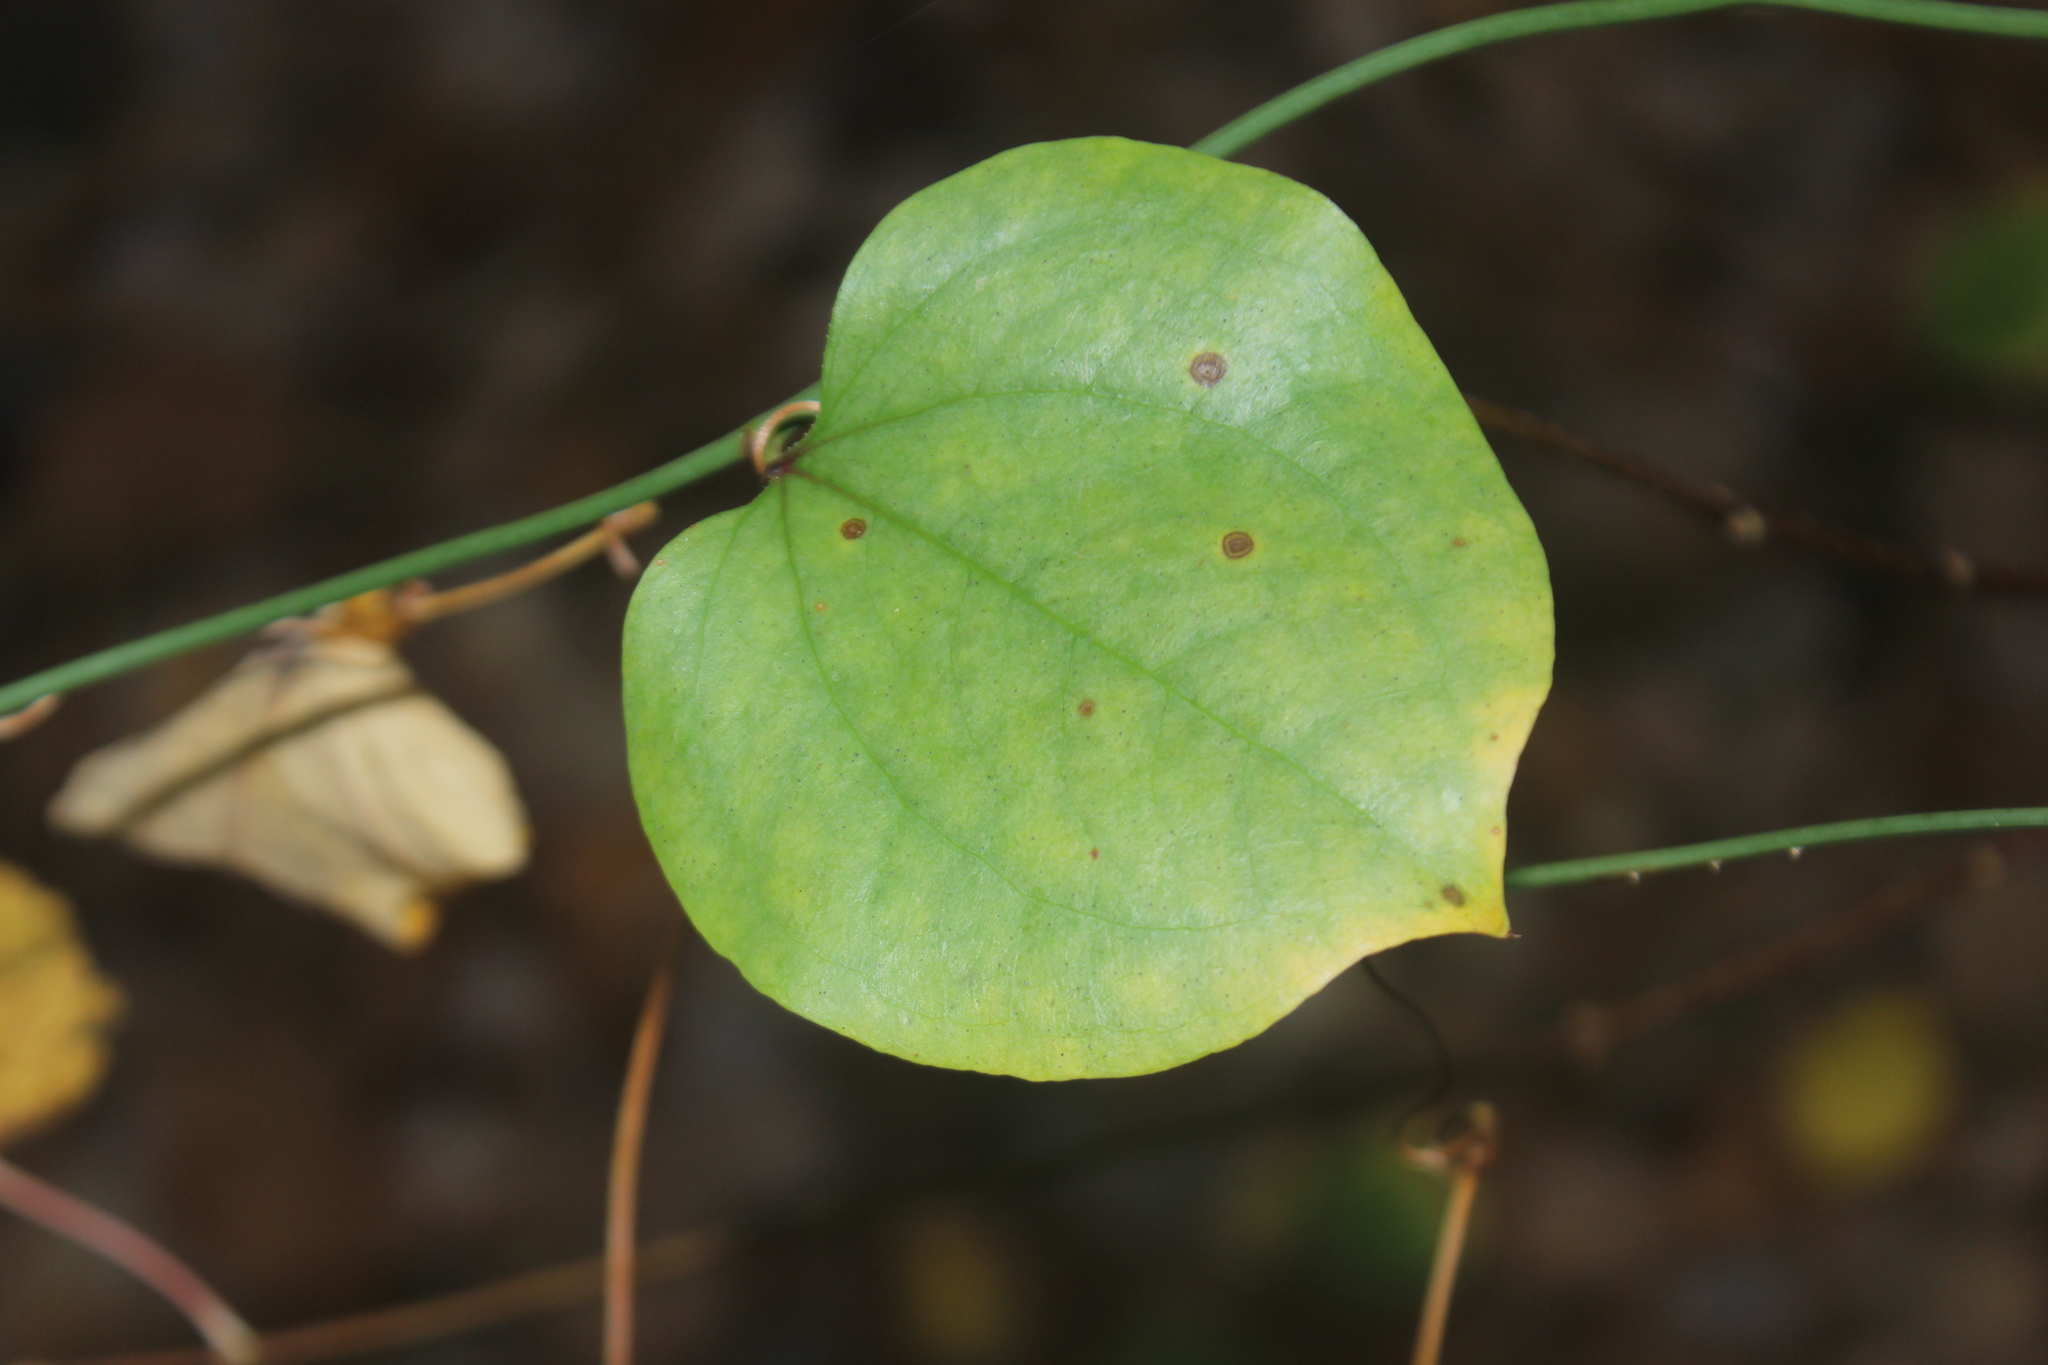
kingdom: Plantae
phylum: Tracheophyta
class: Liliopsida
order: Liliales
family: Smilacaceae
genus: Smilax
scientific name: Smilax rotundifolia
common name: Bullbriar
